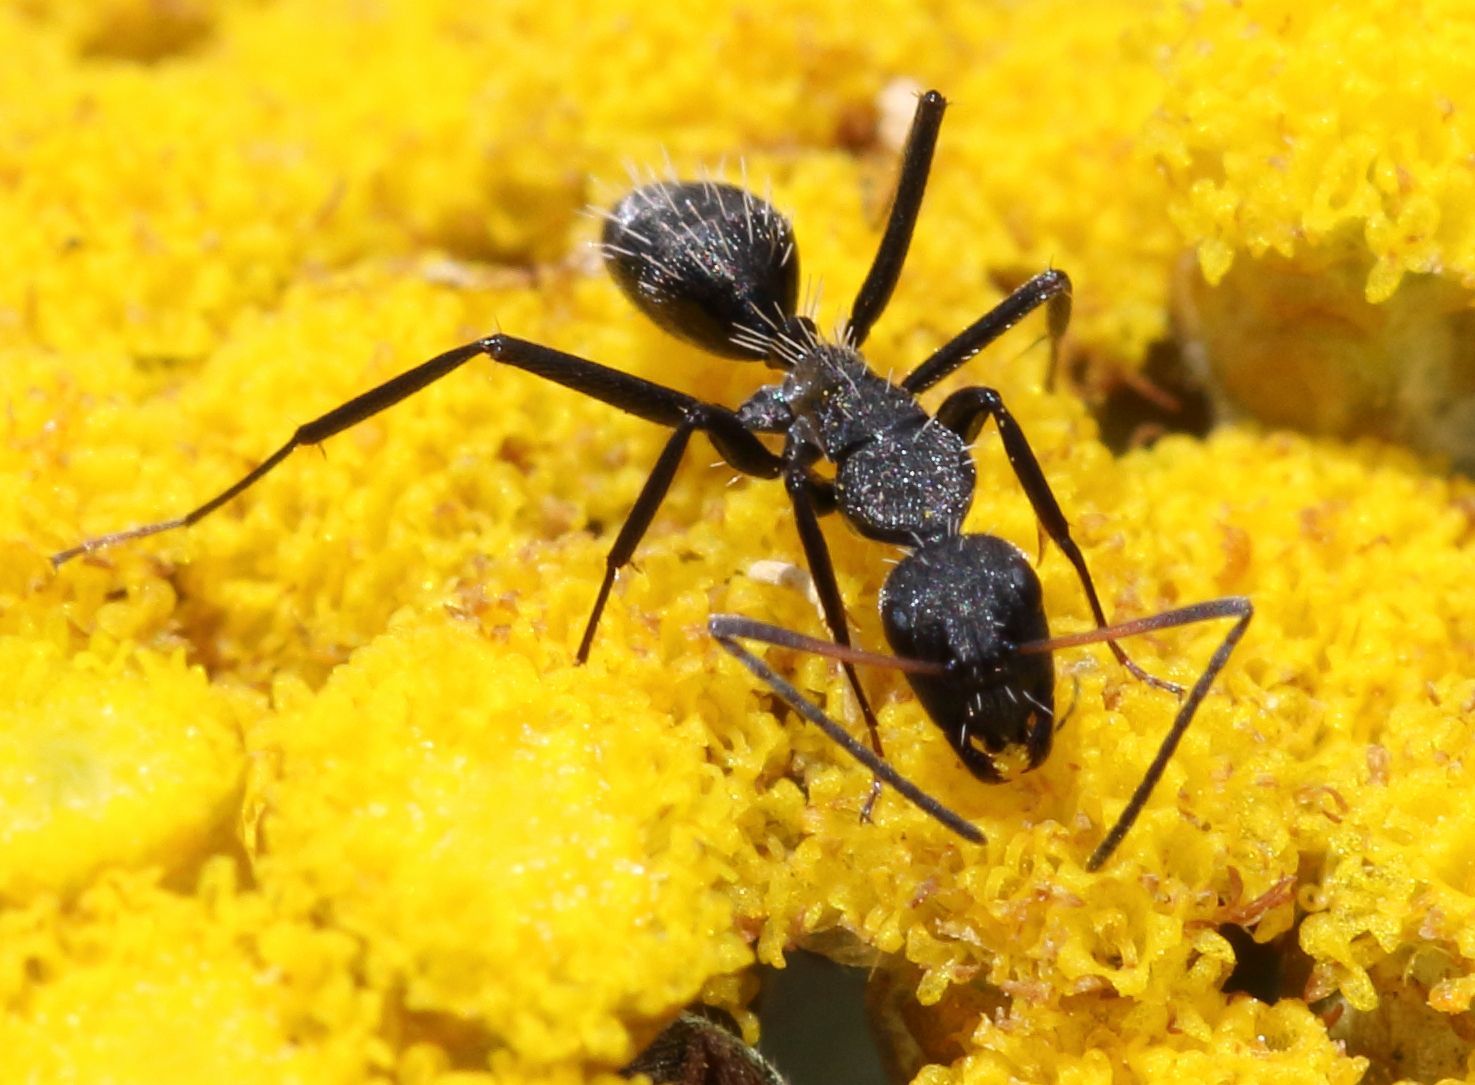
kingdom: Animalia
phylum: Arthropoda
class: Insecta
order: Hymenoptera
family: Formicidae
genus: Camponotus
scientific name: Camponotus niveosetosus
